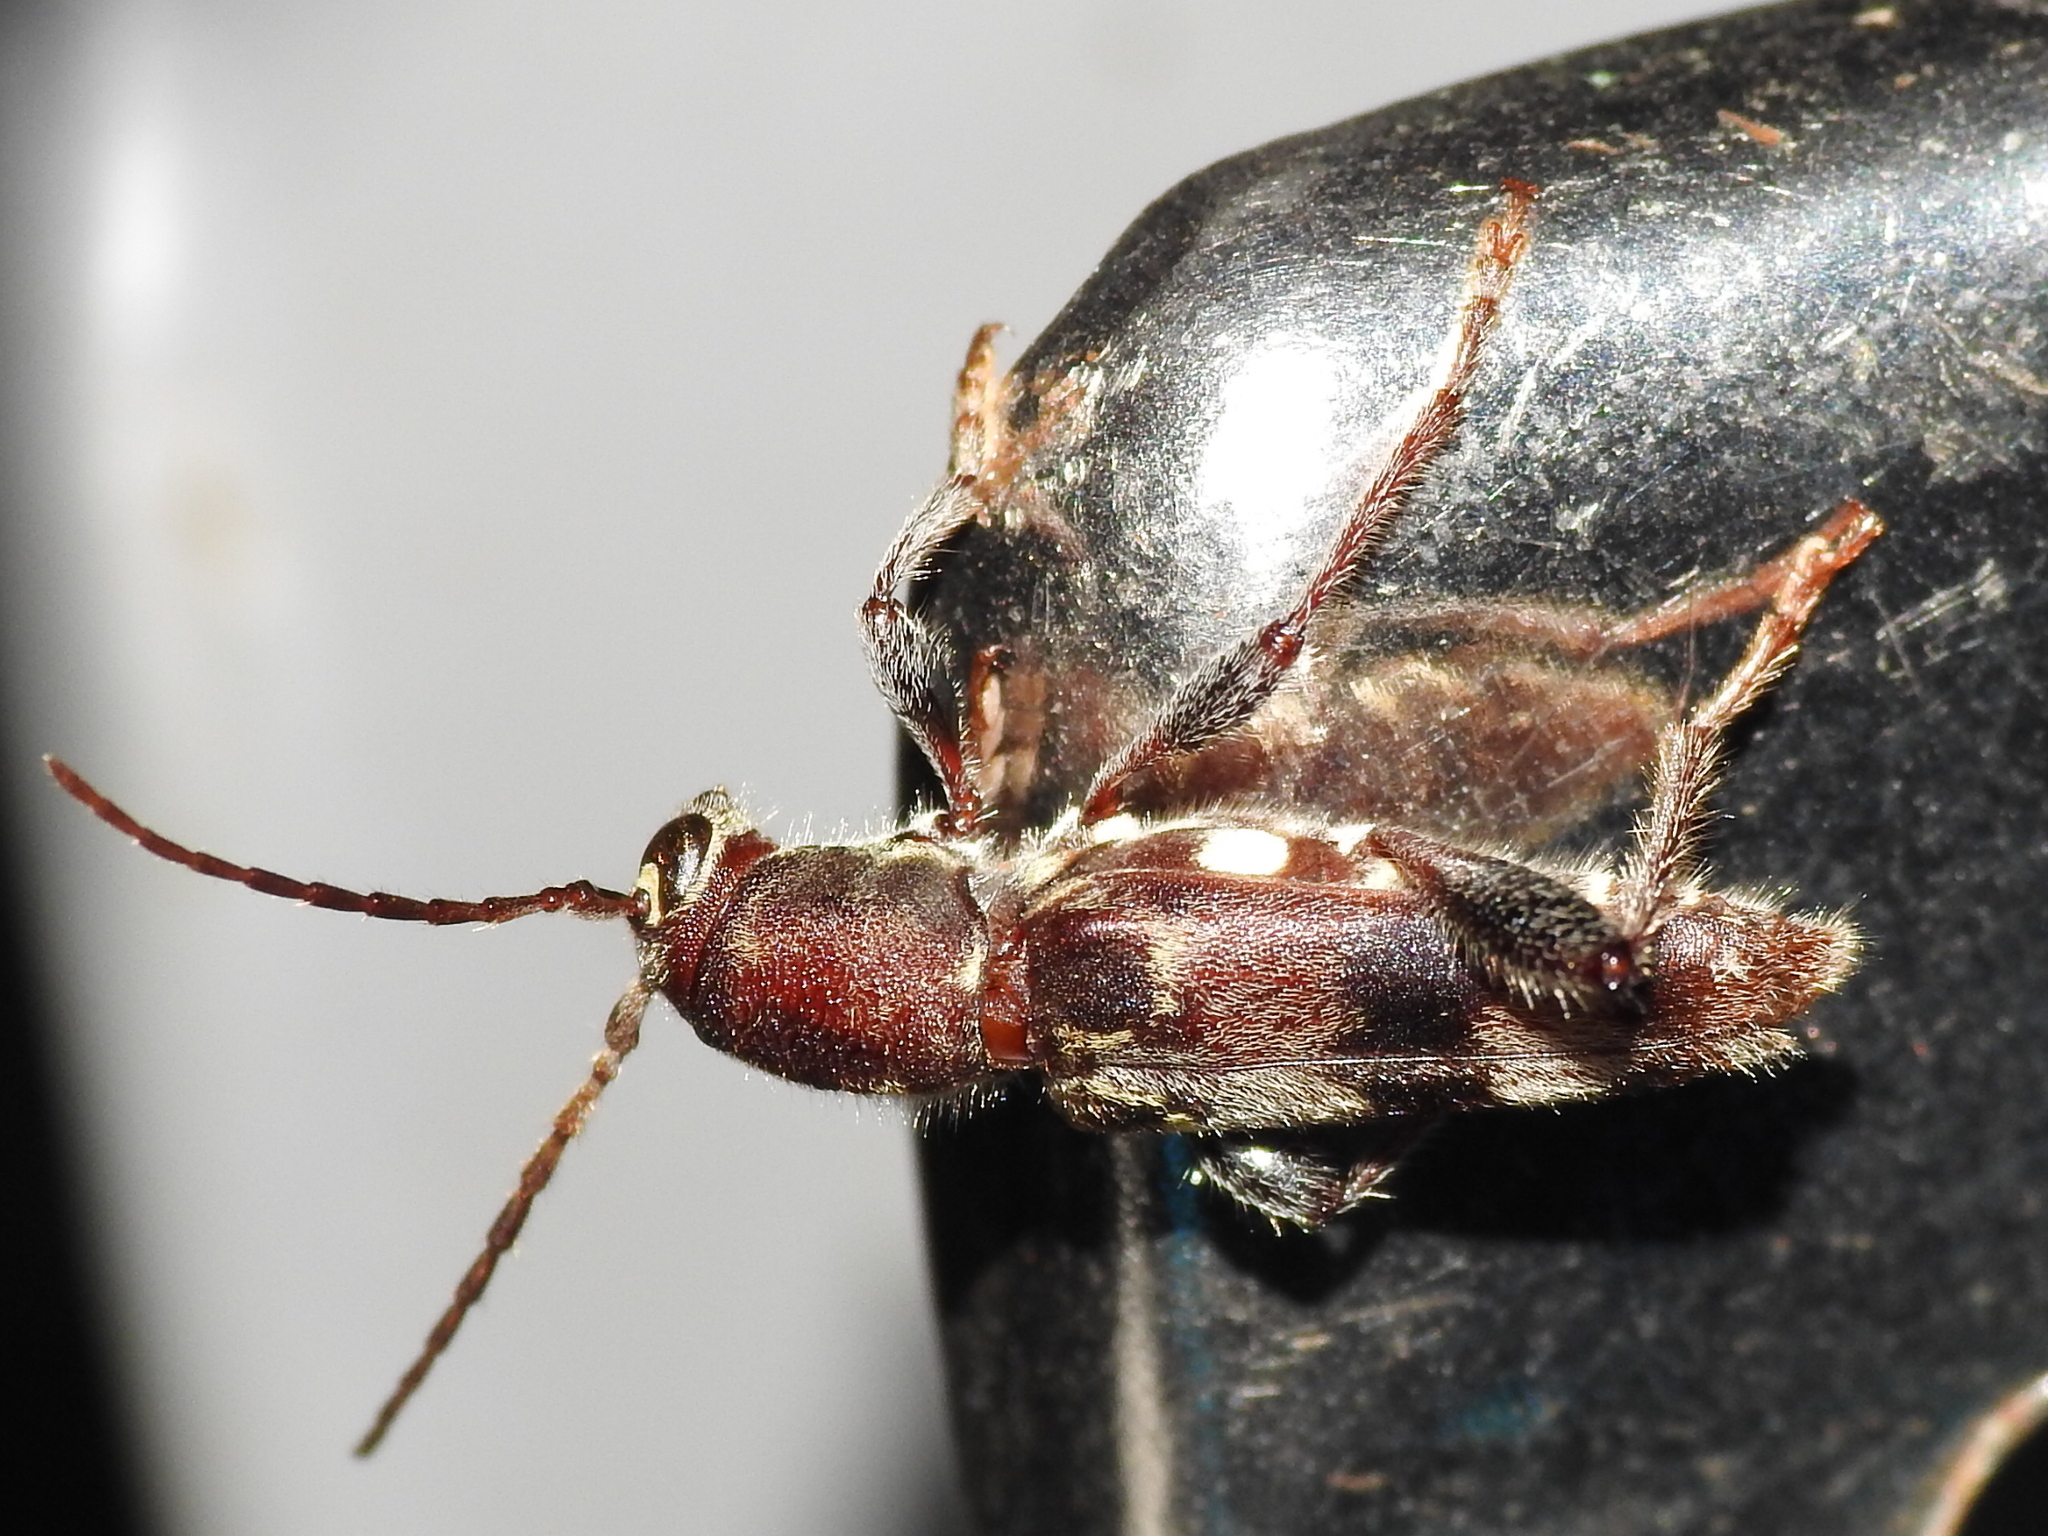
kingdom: Animalia
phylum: Arthropoda
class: Insecta
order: Coleoptera
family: Cerambycidae
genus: Xylotrechus
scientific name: Xylotrechus colonus
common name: Long-horned beetle
